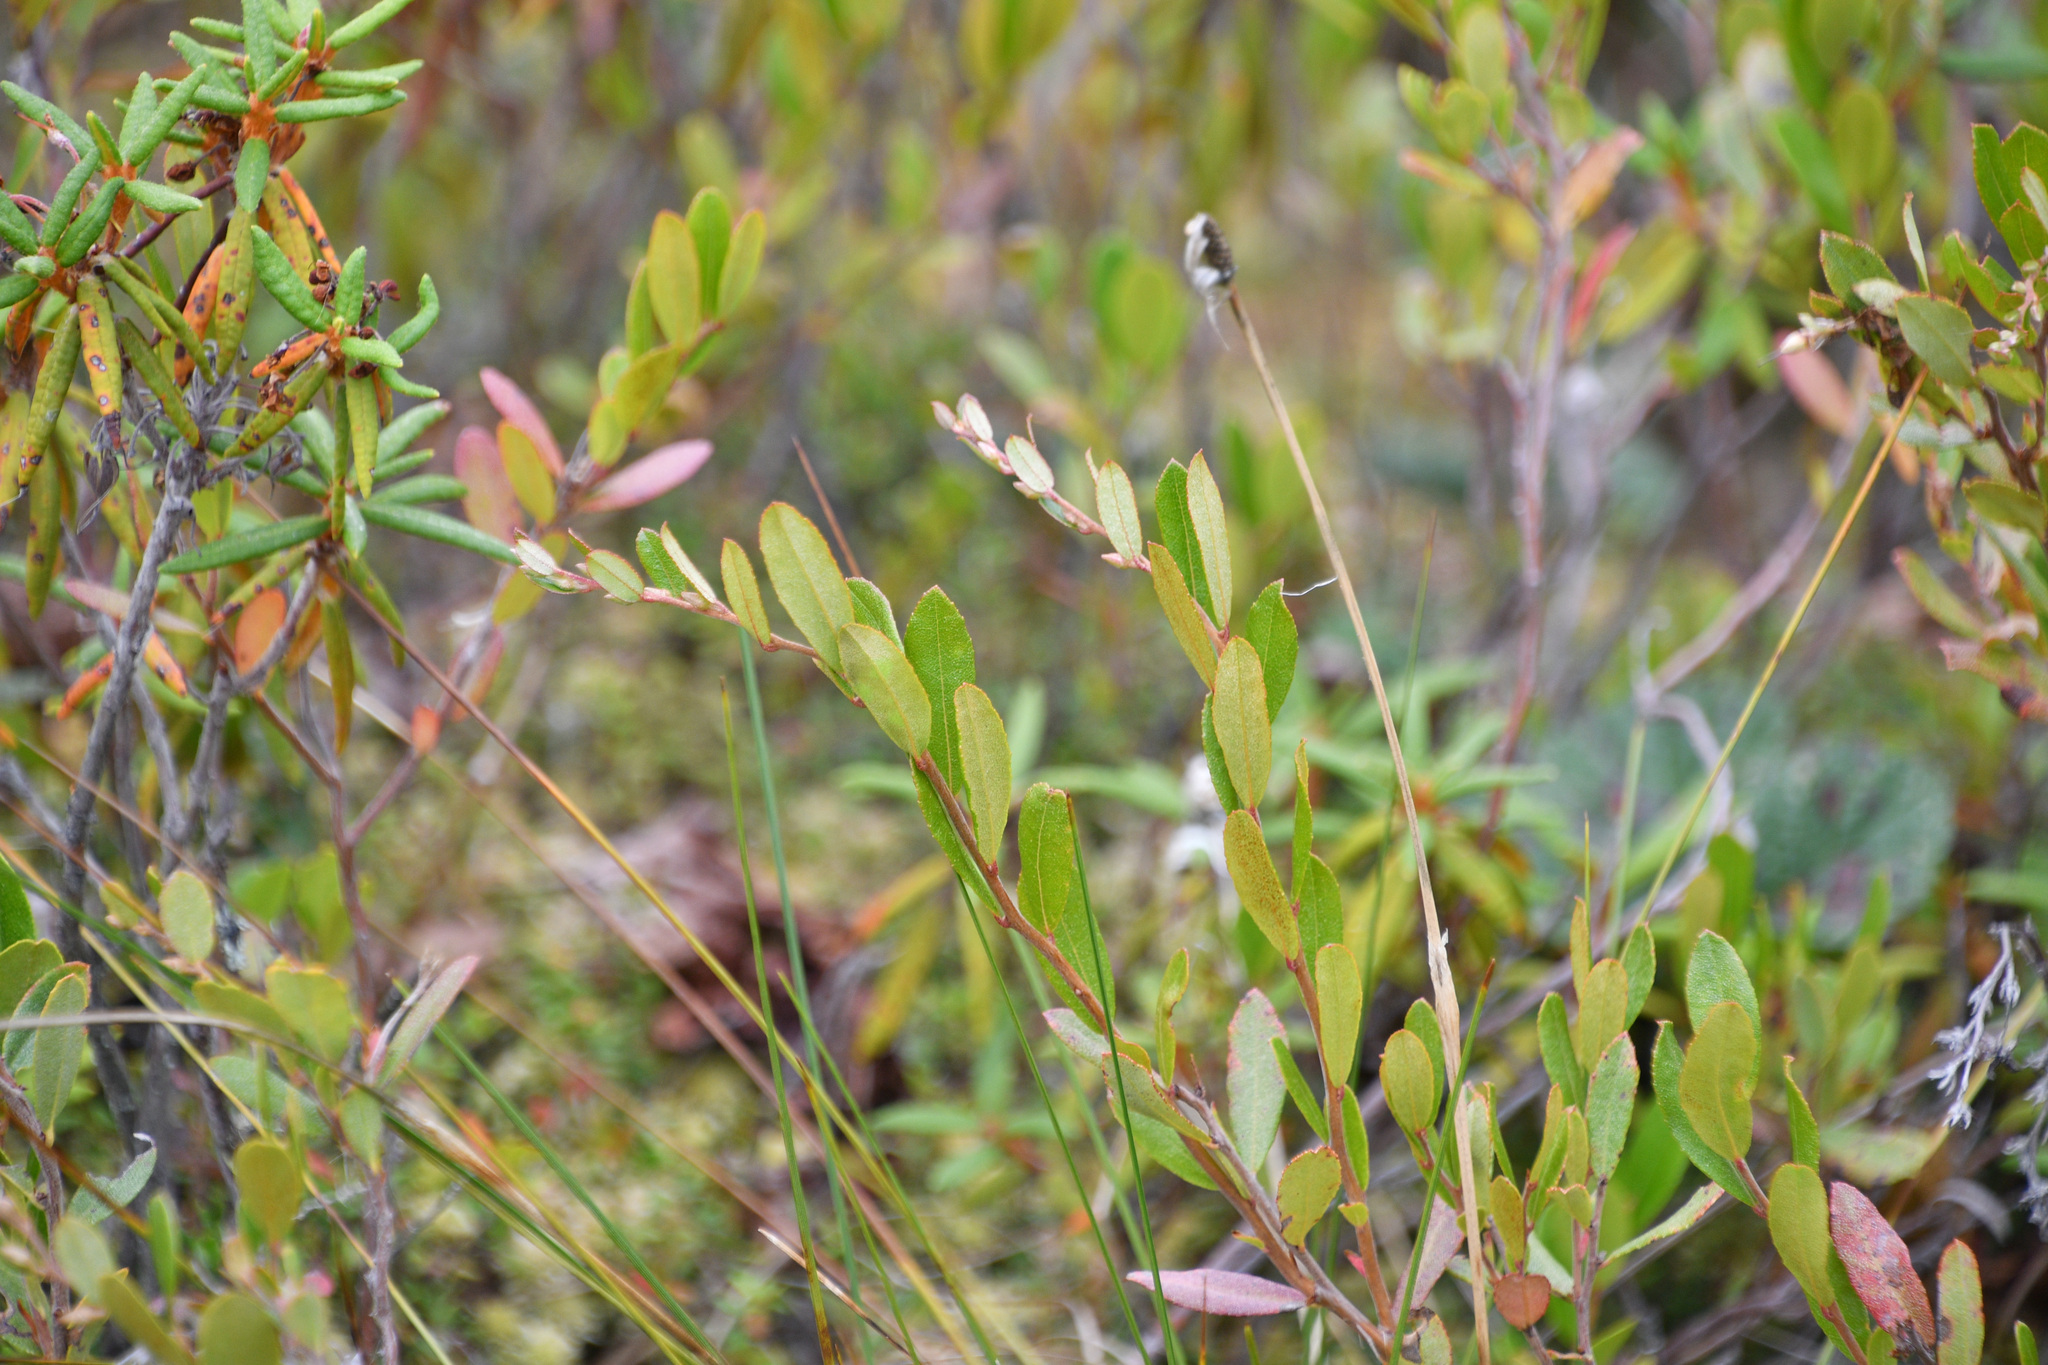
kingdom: Plantae
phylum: Tracheophyta
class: Magnoliopsida
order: Ericales
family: Ericaceae
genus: Chamaedaphne
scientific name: Chamaedaphne calyculata
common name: Leatherleaf
